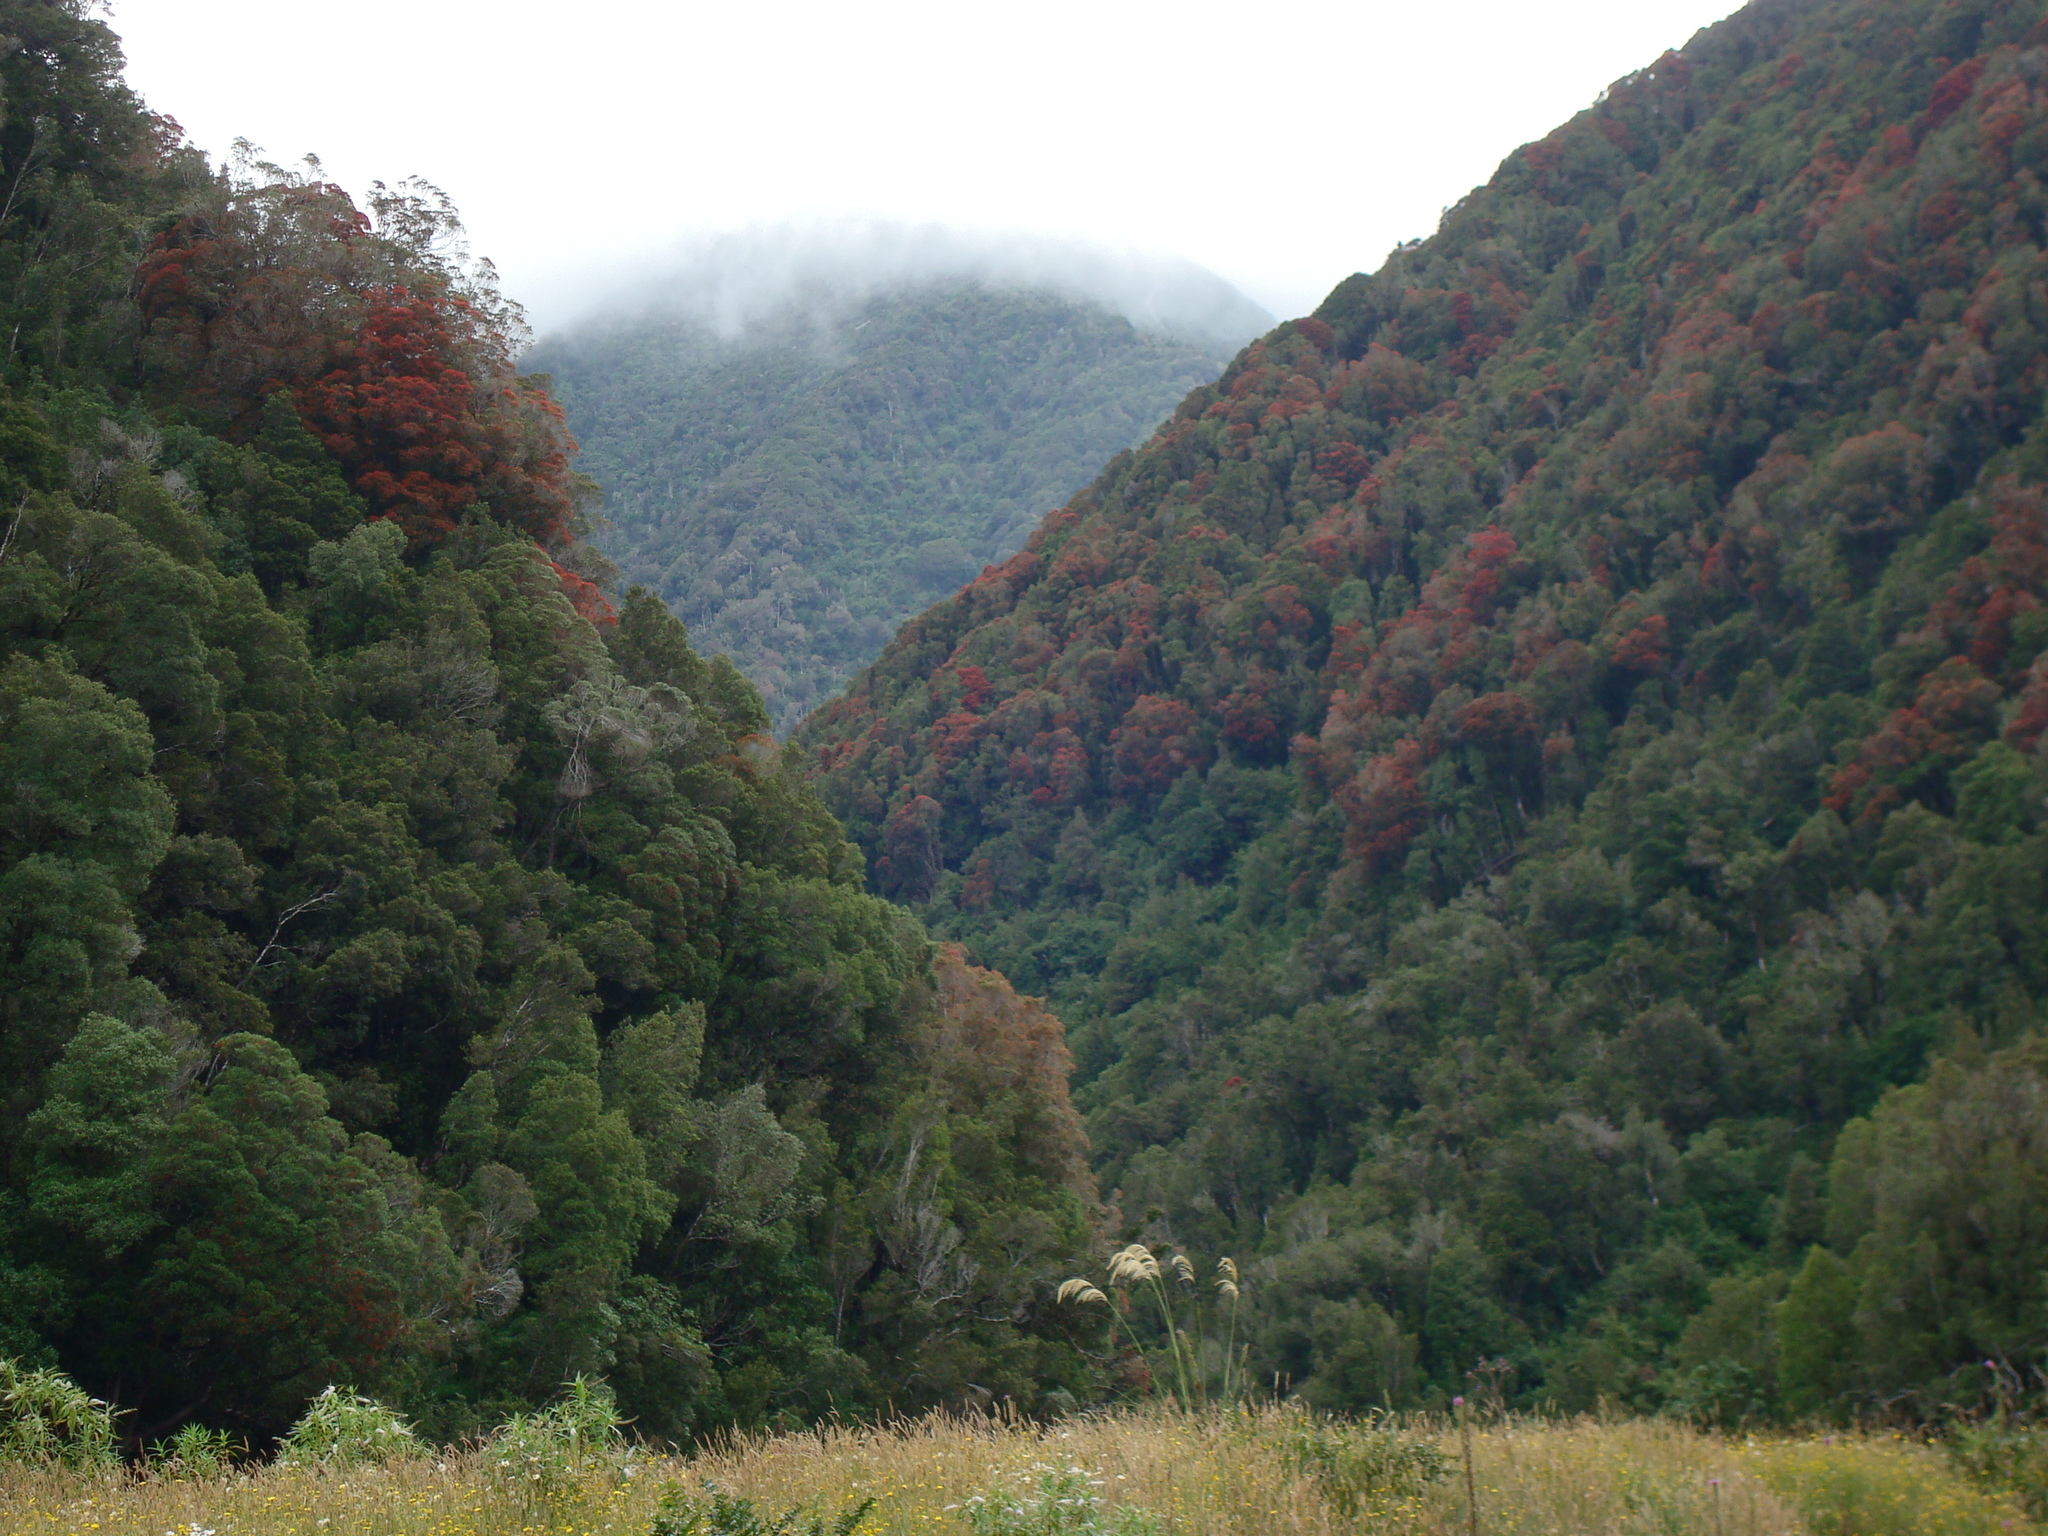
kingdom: Plantae
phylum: Tracheophyta
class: Magnoliopsida
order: Myrtales
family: Myrtaceae
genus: Metrosideros
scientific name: Metrosideros umbellata
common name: Southern rata
